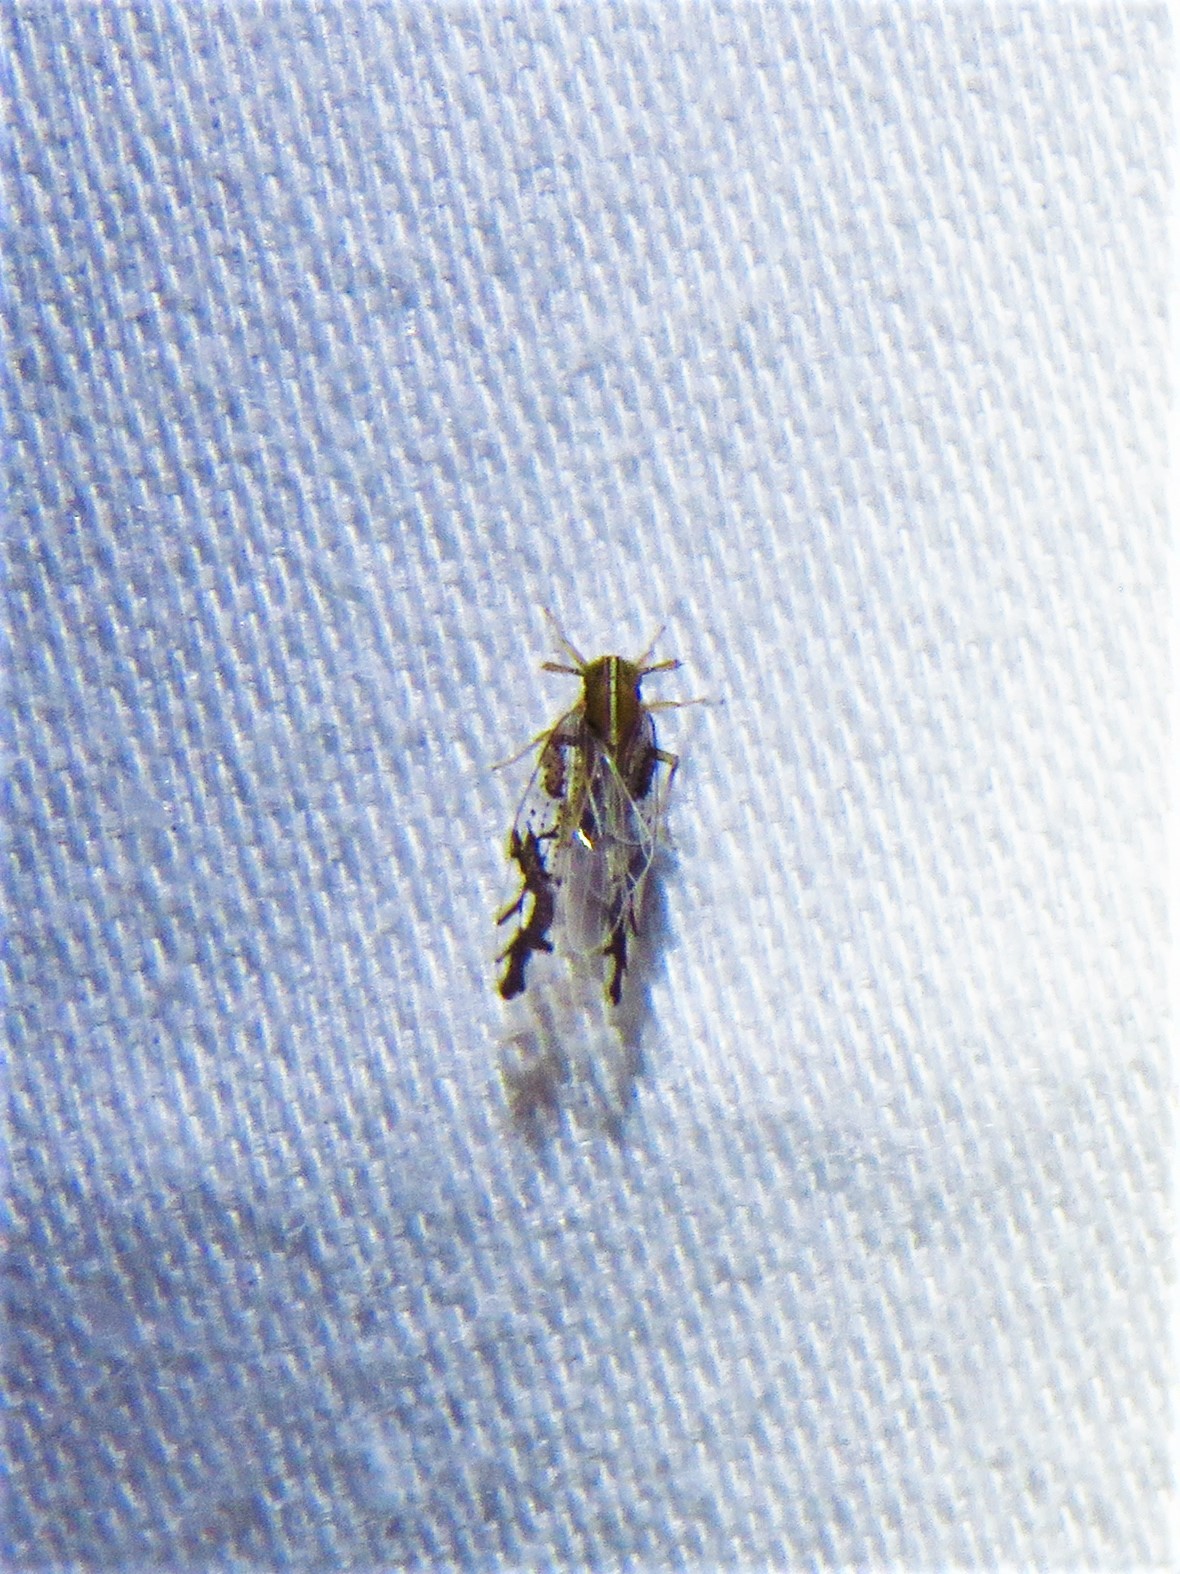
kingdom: Animalia
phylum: Arthropoda
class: Insecta
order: Hemiptera
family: Delphacidae
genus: Liburniella
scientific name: Liburniella ornata
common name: Ornate planthopper
